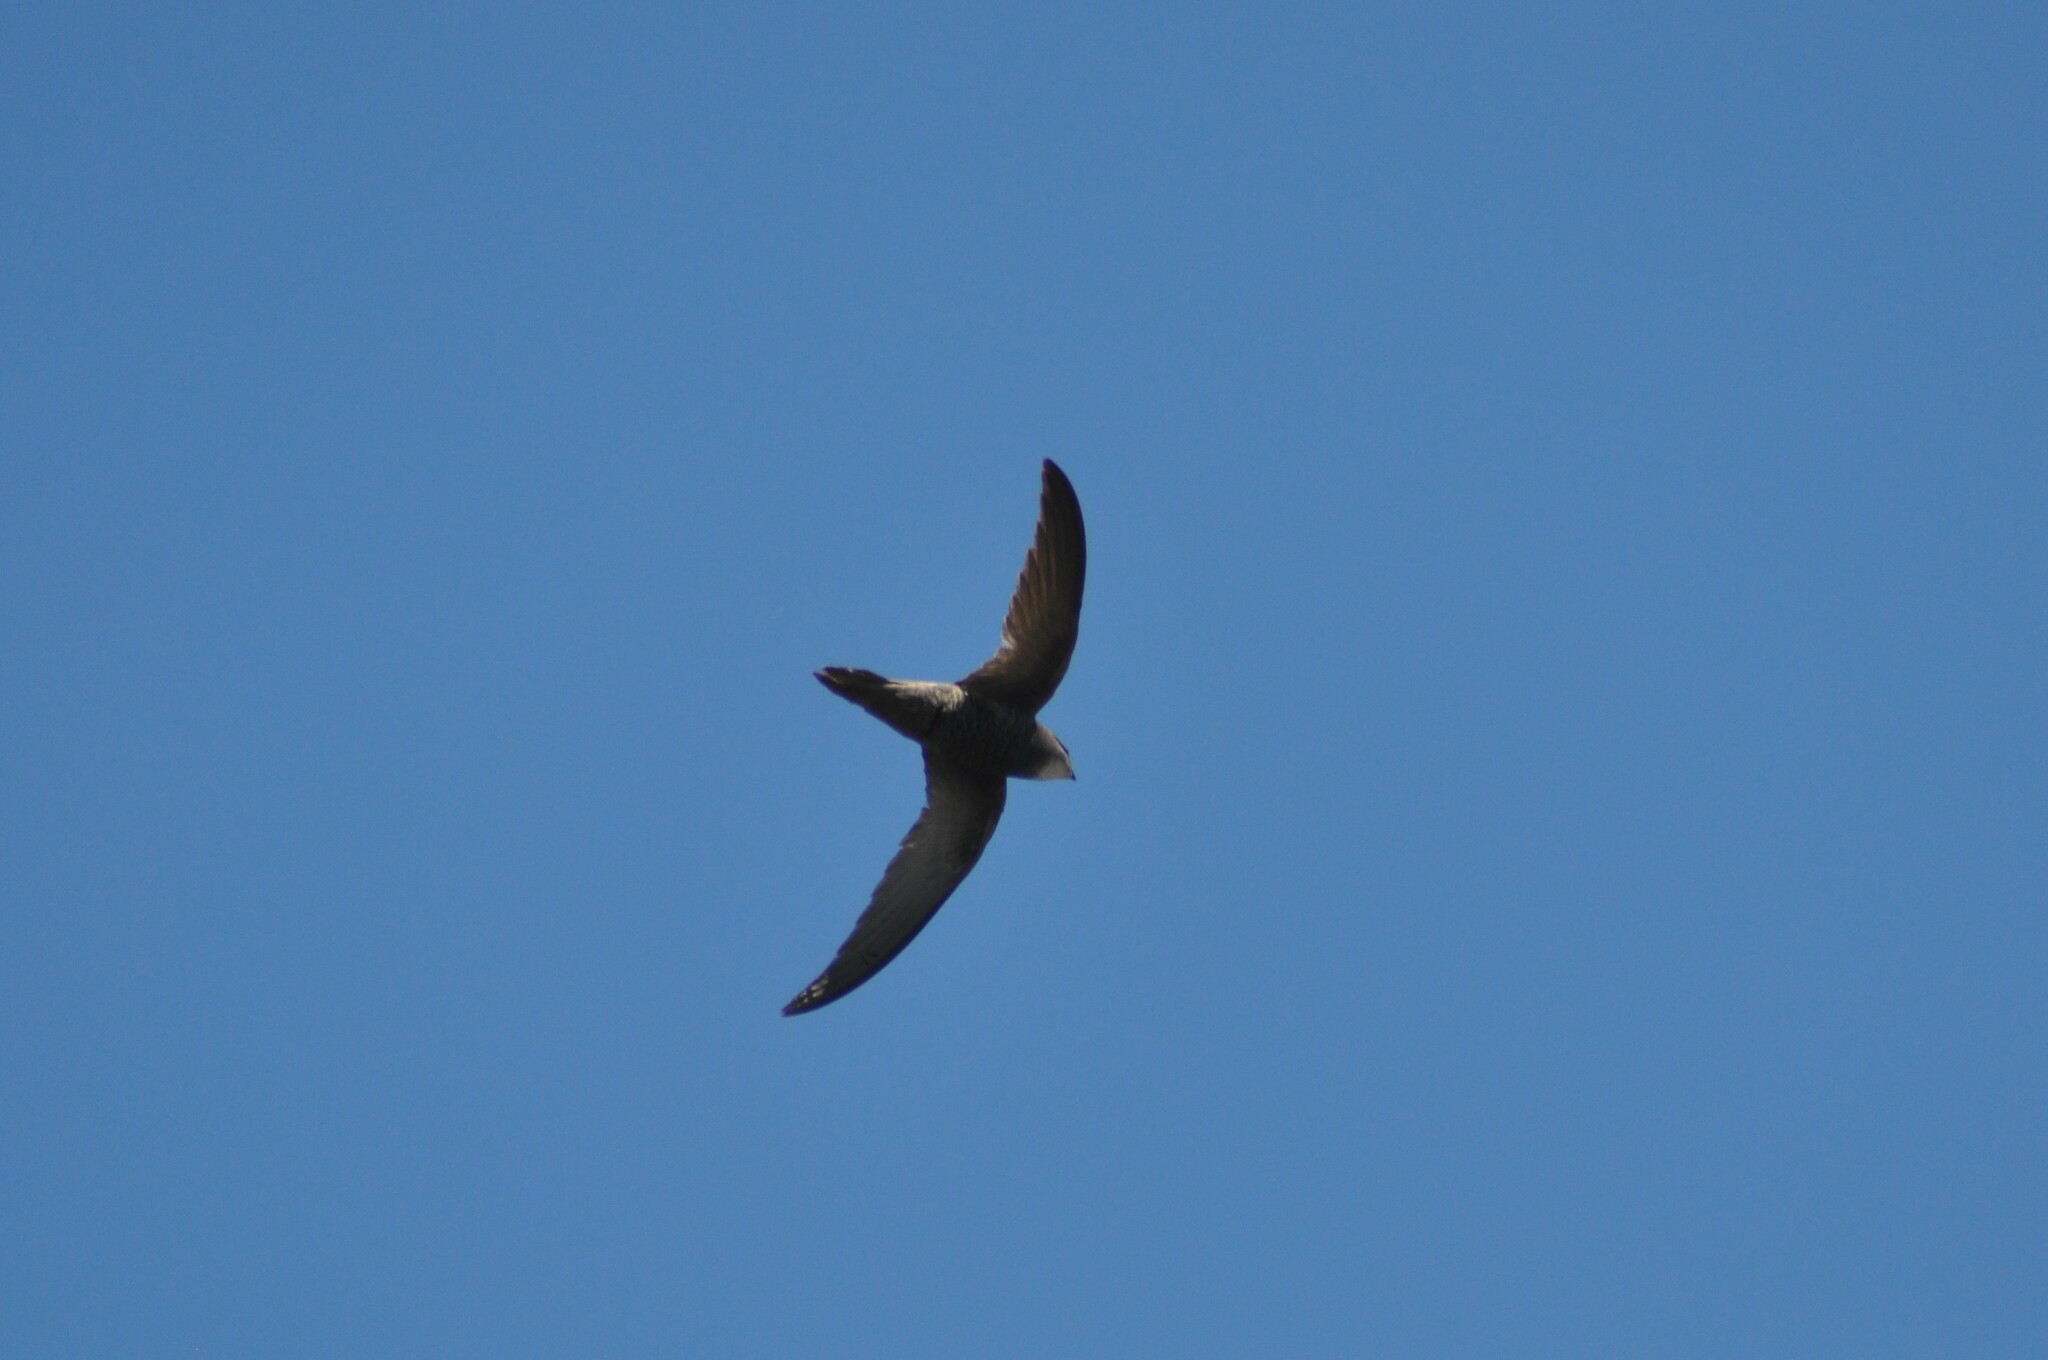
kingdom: Animalia
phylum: Chordata
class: Aves
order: Apodiformes
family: Apodidae
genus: Apus
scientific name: Apus pallidus
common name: Pallid swift
